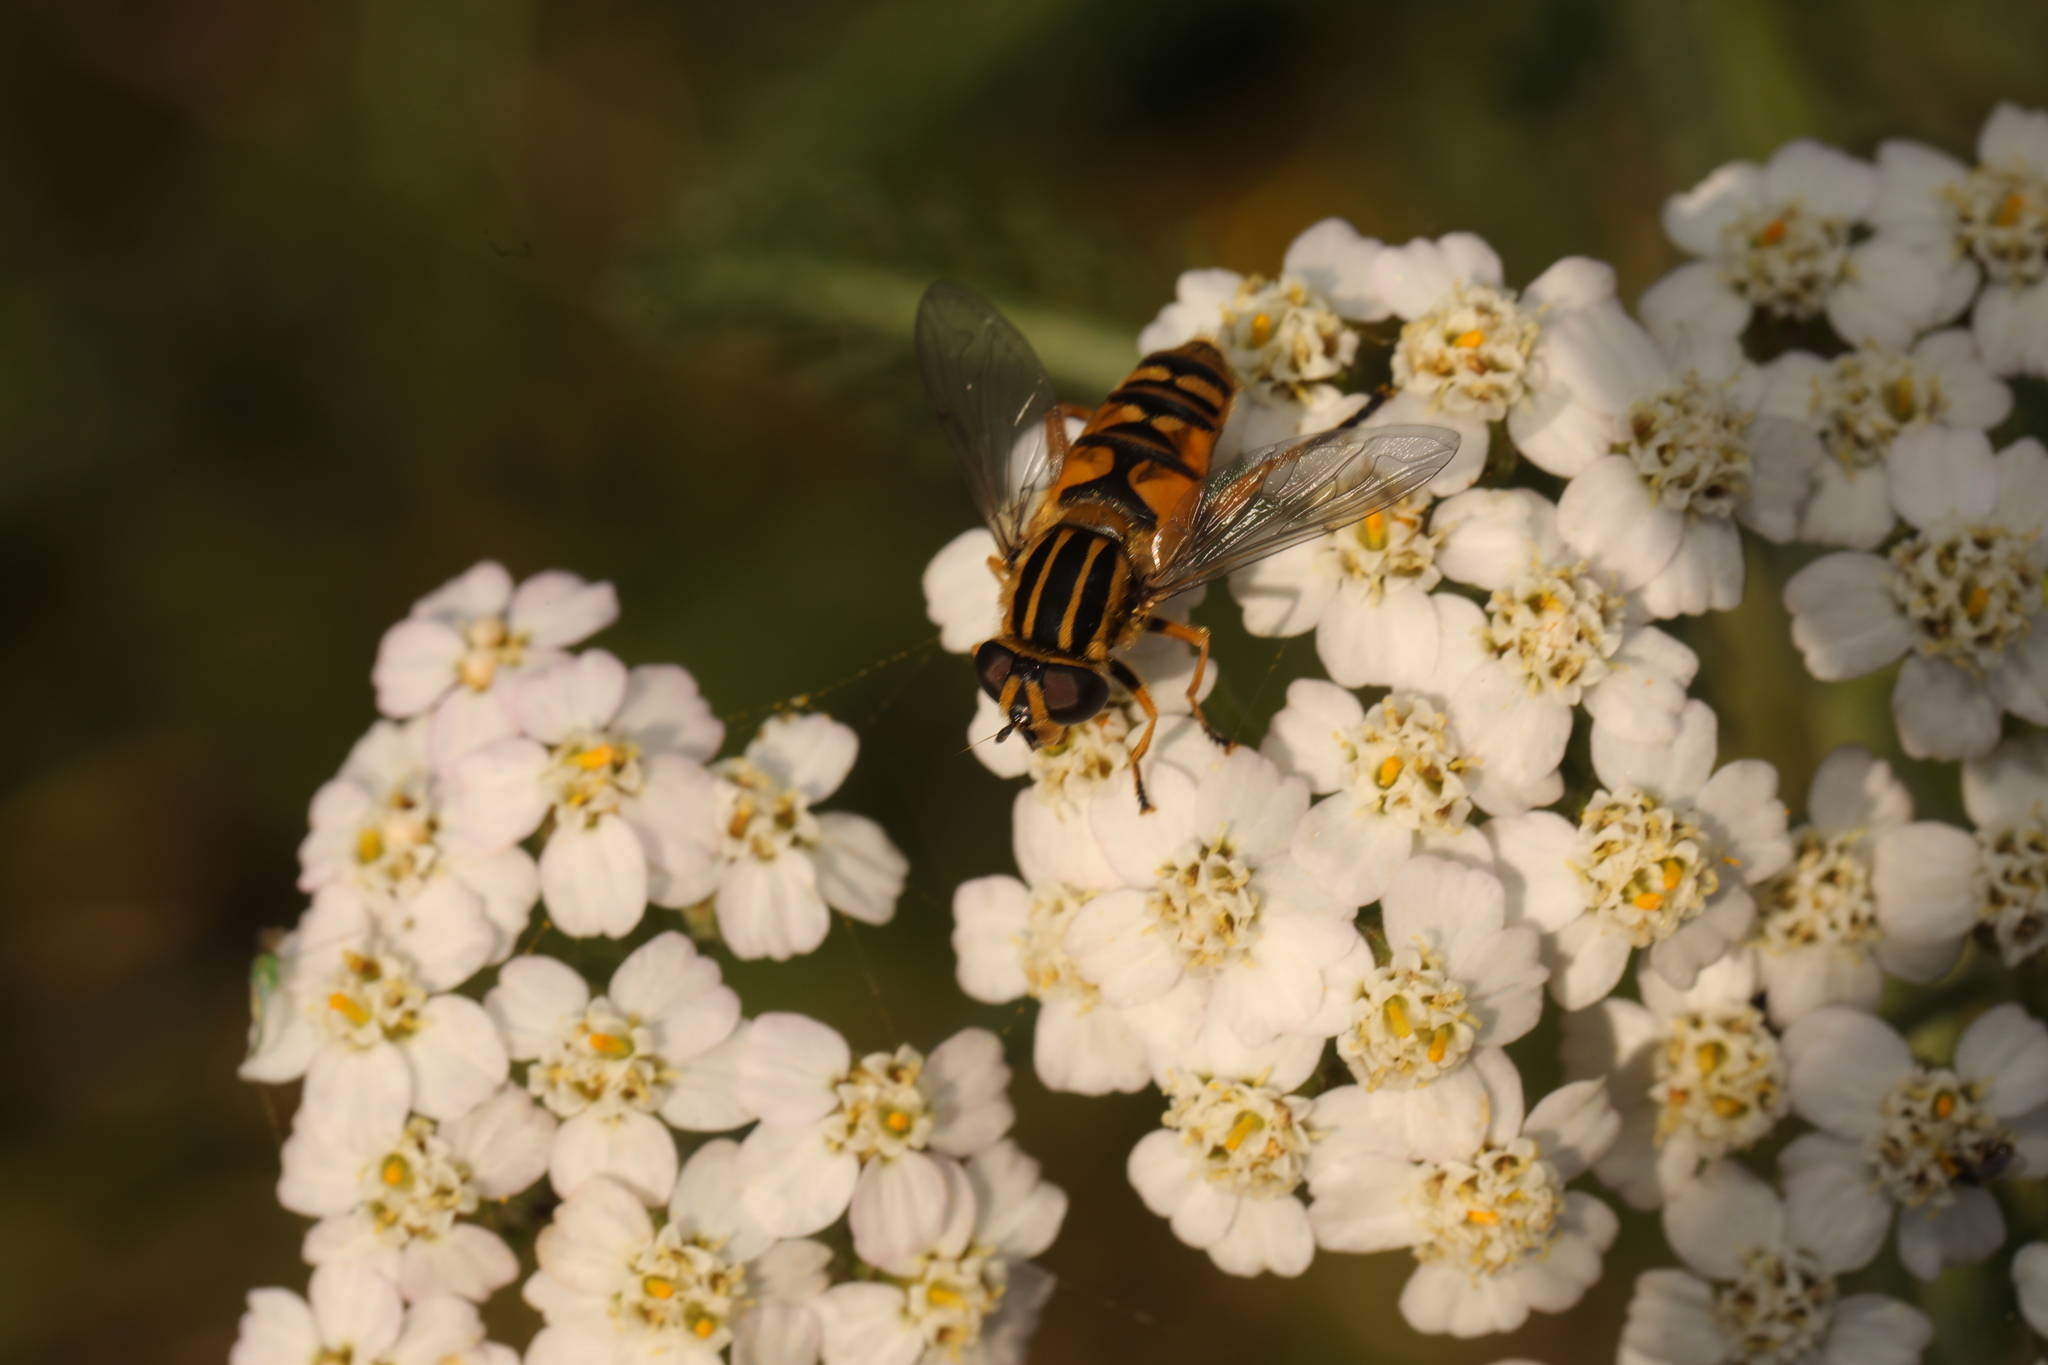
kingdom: Animalia
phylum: Arthropoda
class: Insecta
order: Diptera
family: Syrphidae
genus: Helophilus
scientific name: Helophilus pendulus
